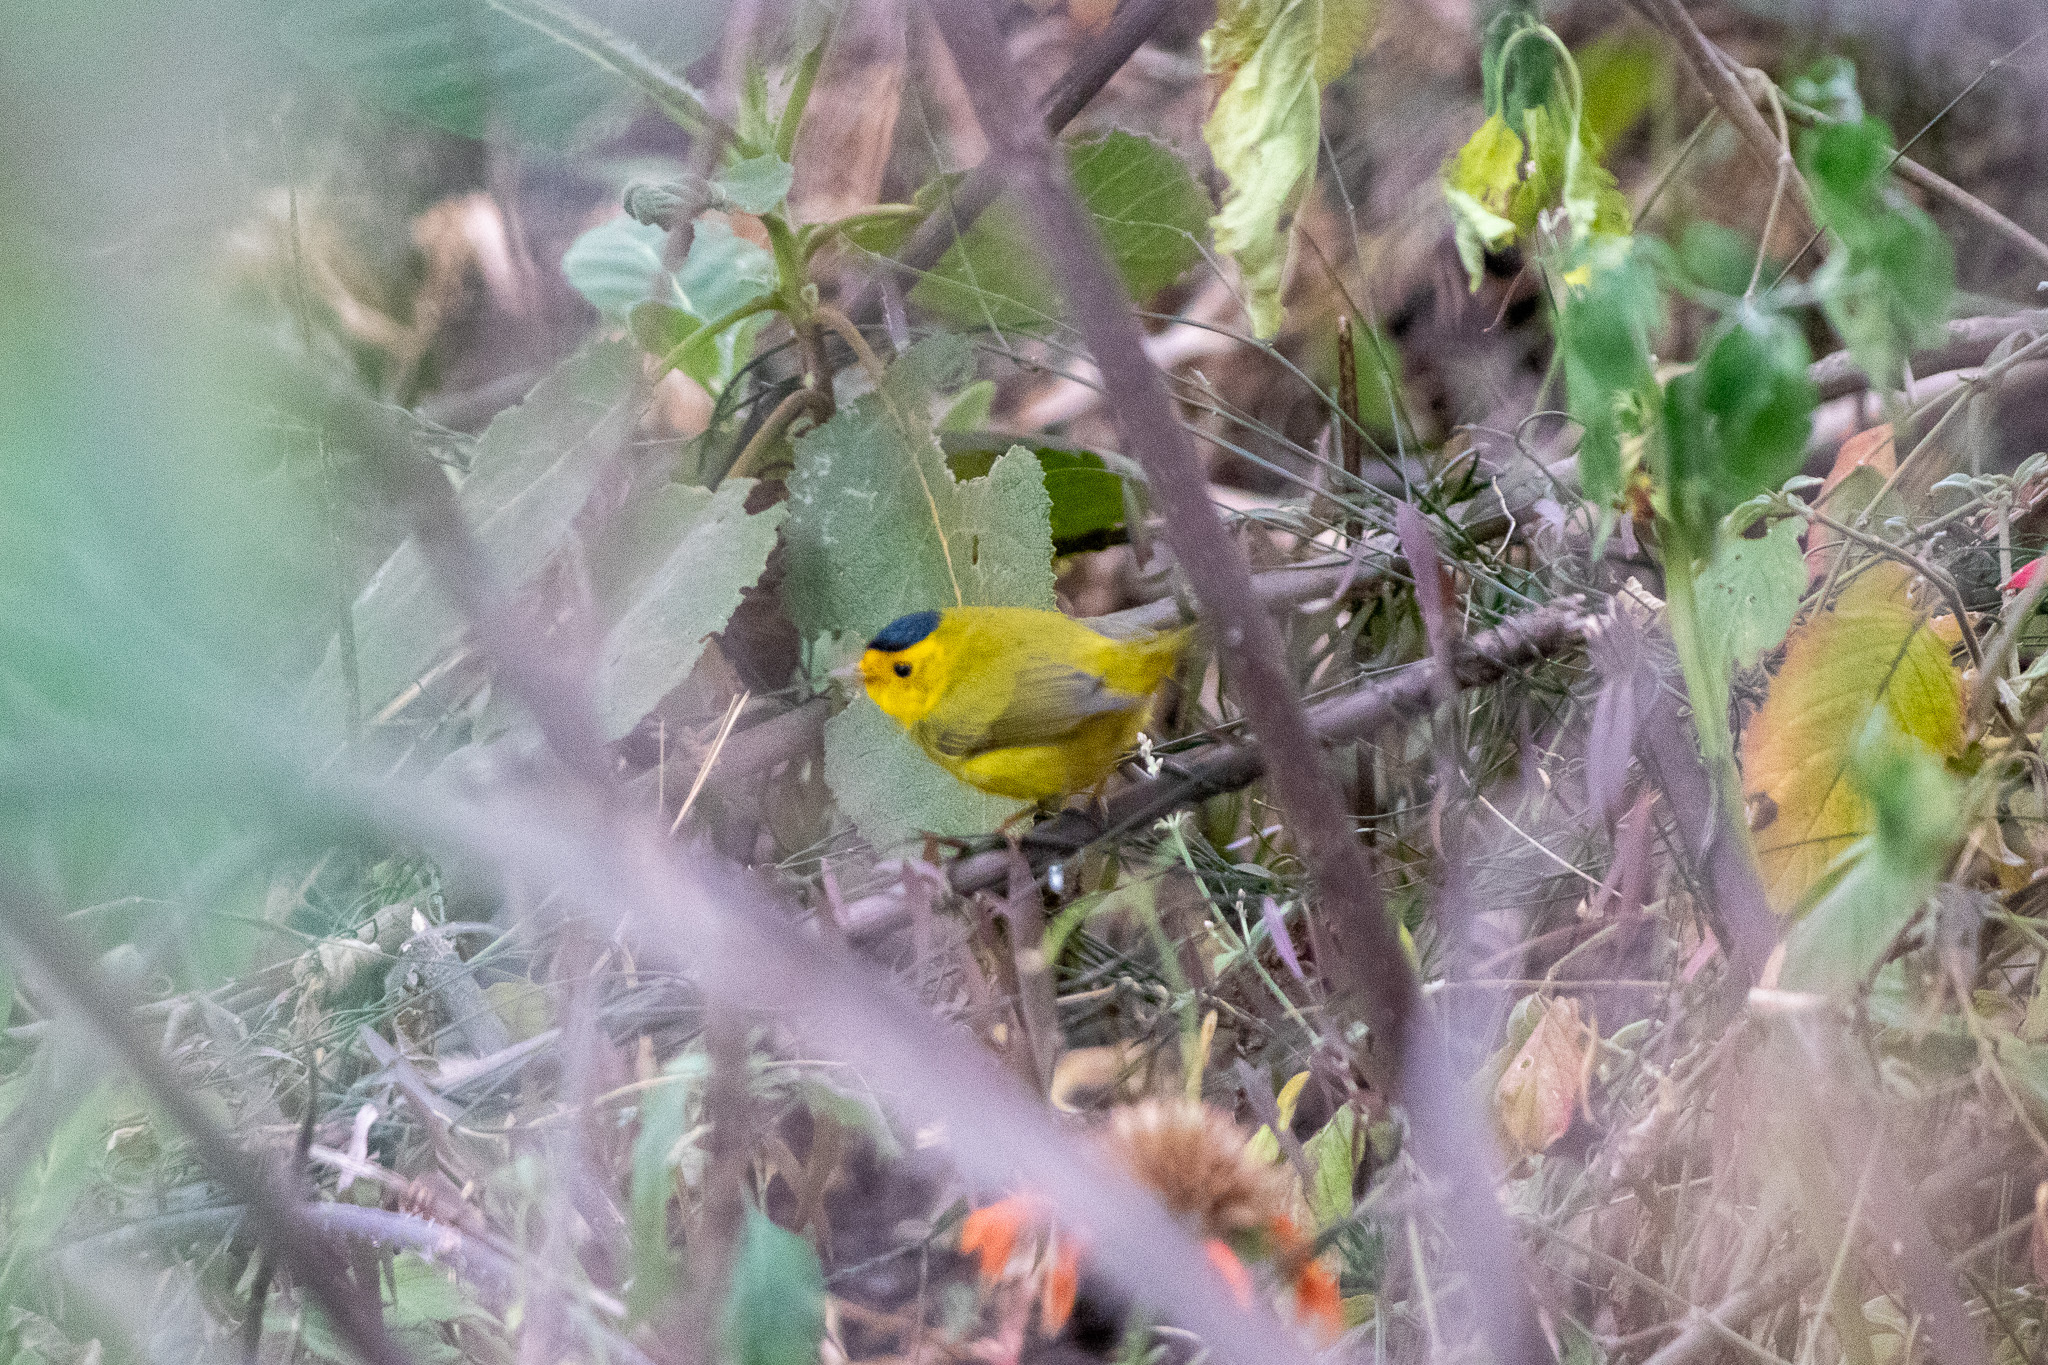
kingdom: Animalia
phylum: Chordata
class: Aves
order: Passeriformes
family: Parulidae
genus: Cardellina
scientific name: Cardellina pusilla
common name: Wilson's warbler
